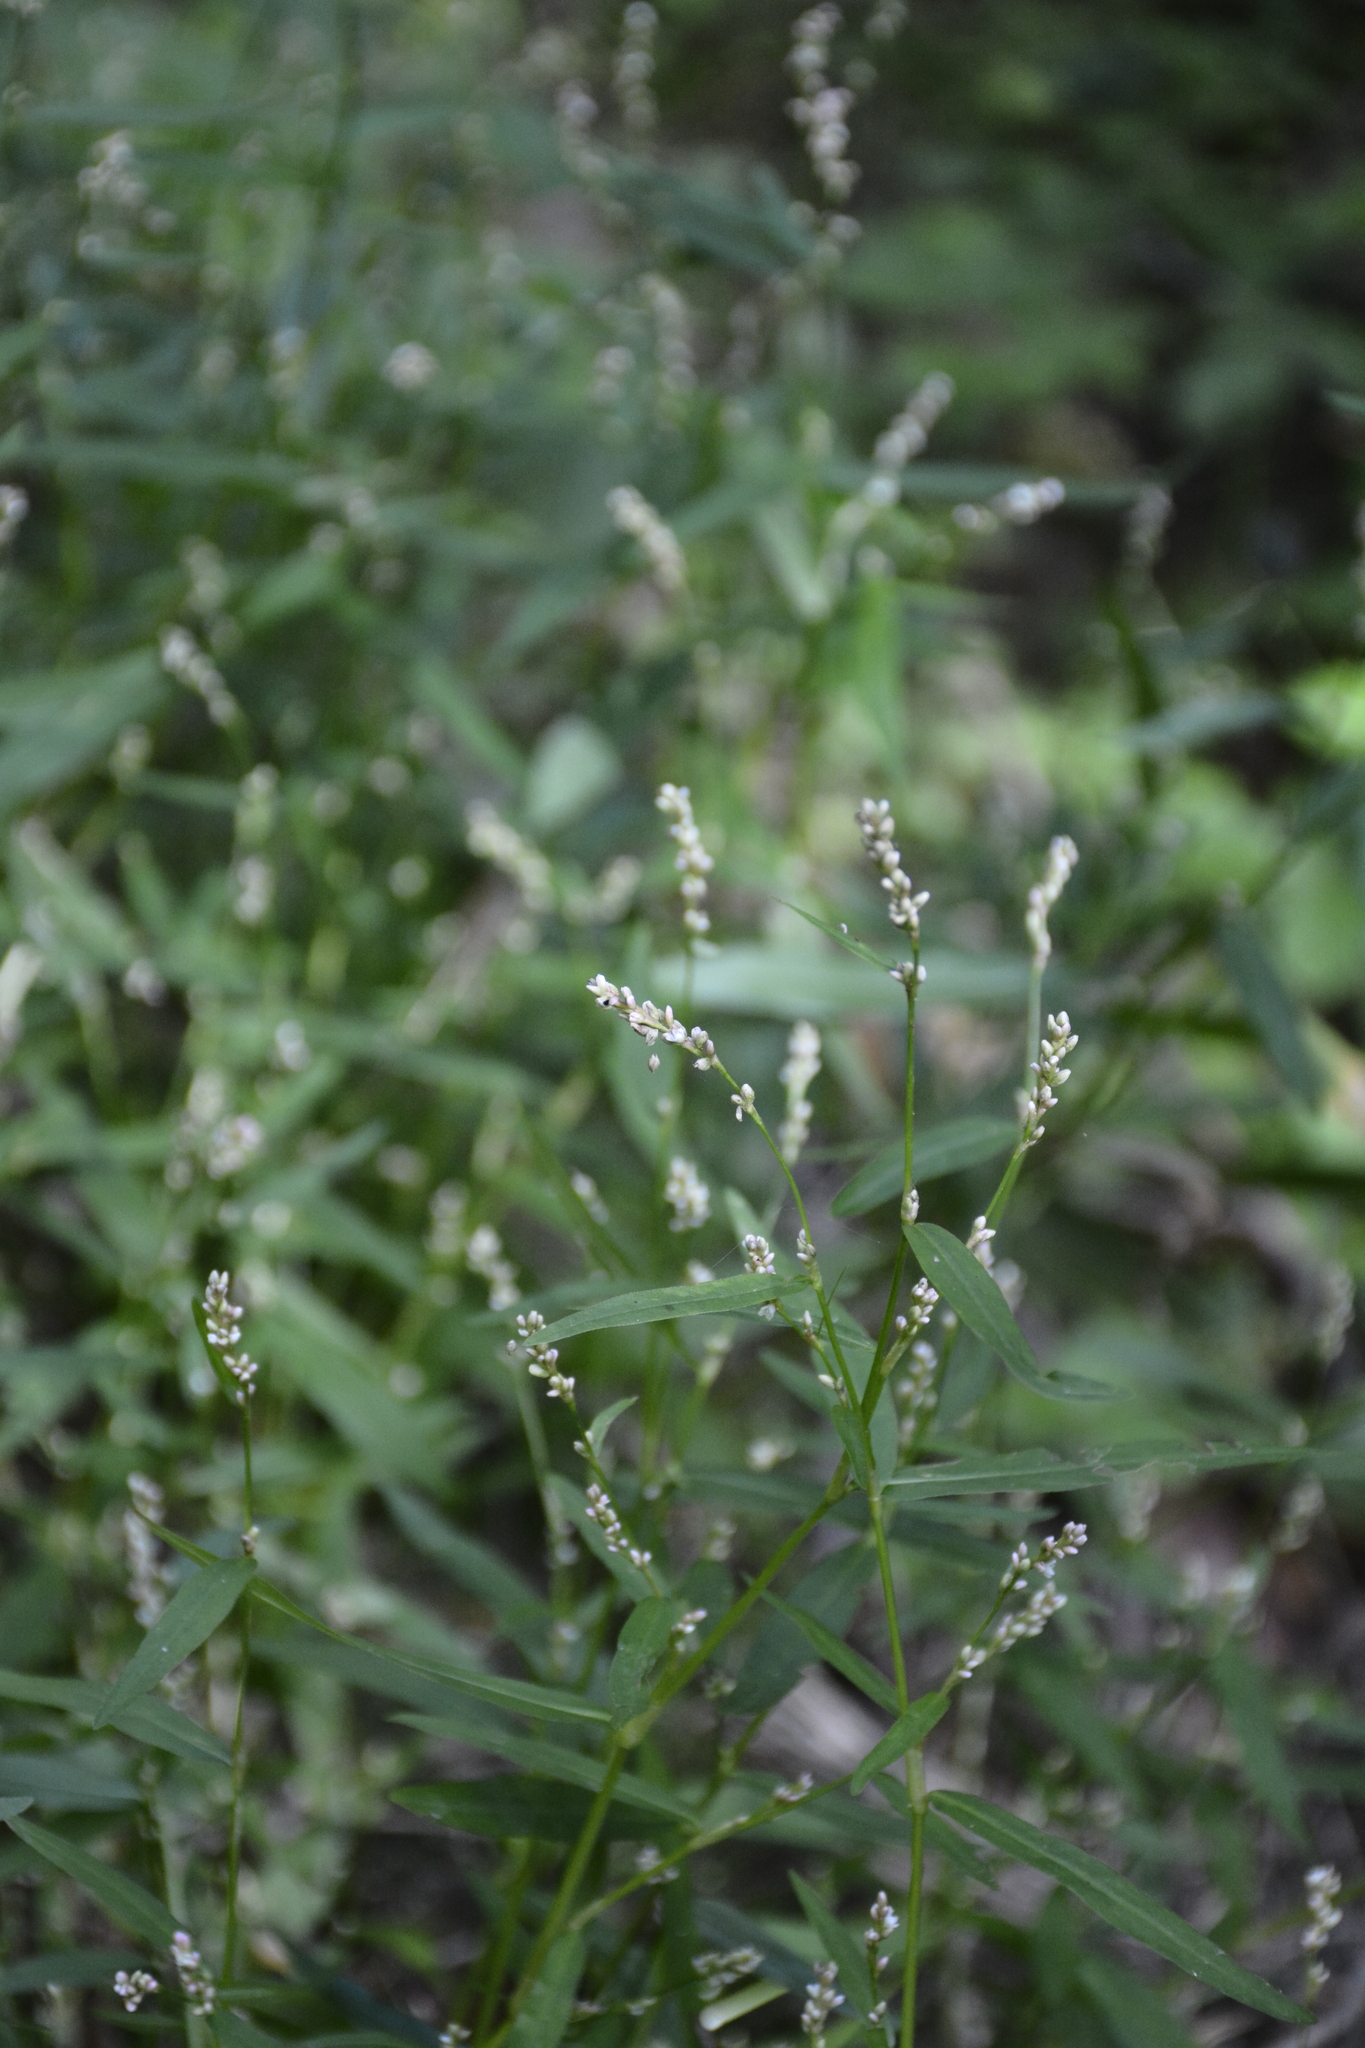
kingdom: Plantae
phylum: Tracheophyta
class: Magnoliopsida
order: Caryophyllales
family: Polygonaceae
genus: Persicaria
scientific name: Persicaria minor
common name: Small water-pepper
